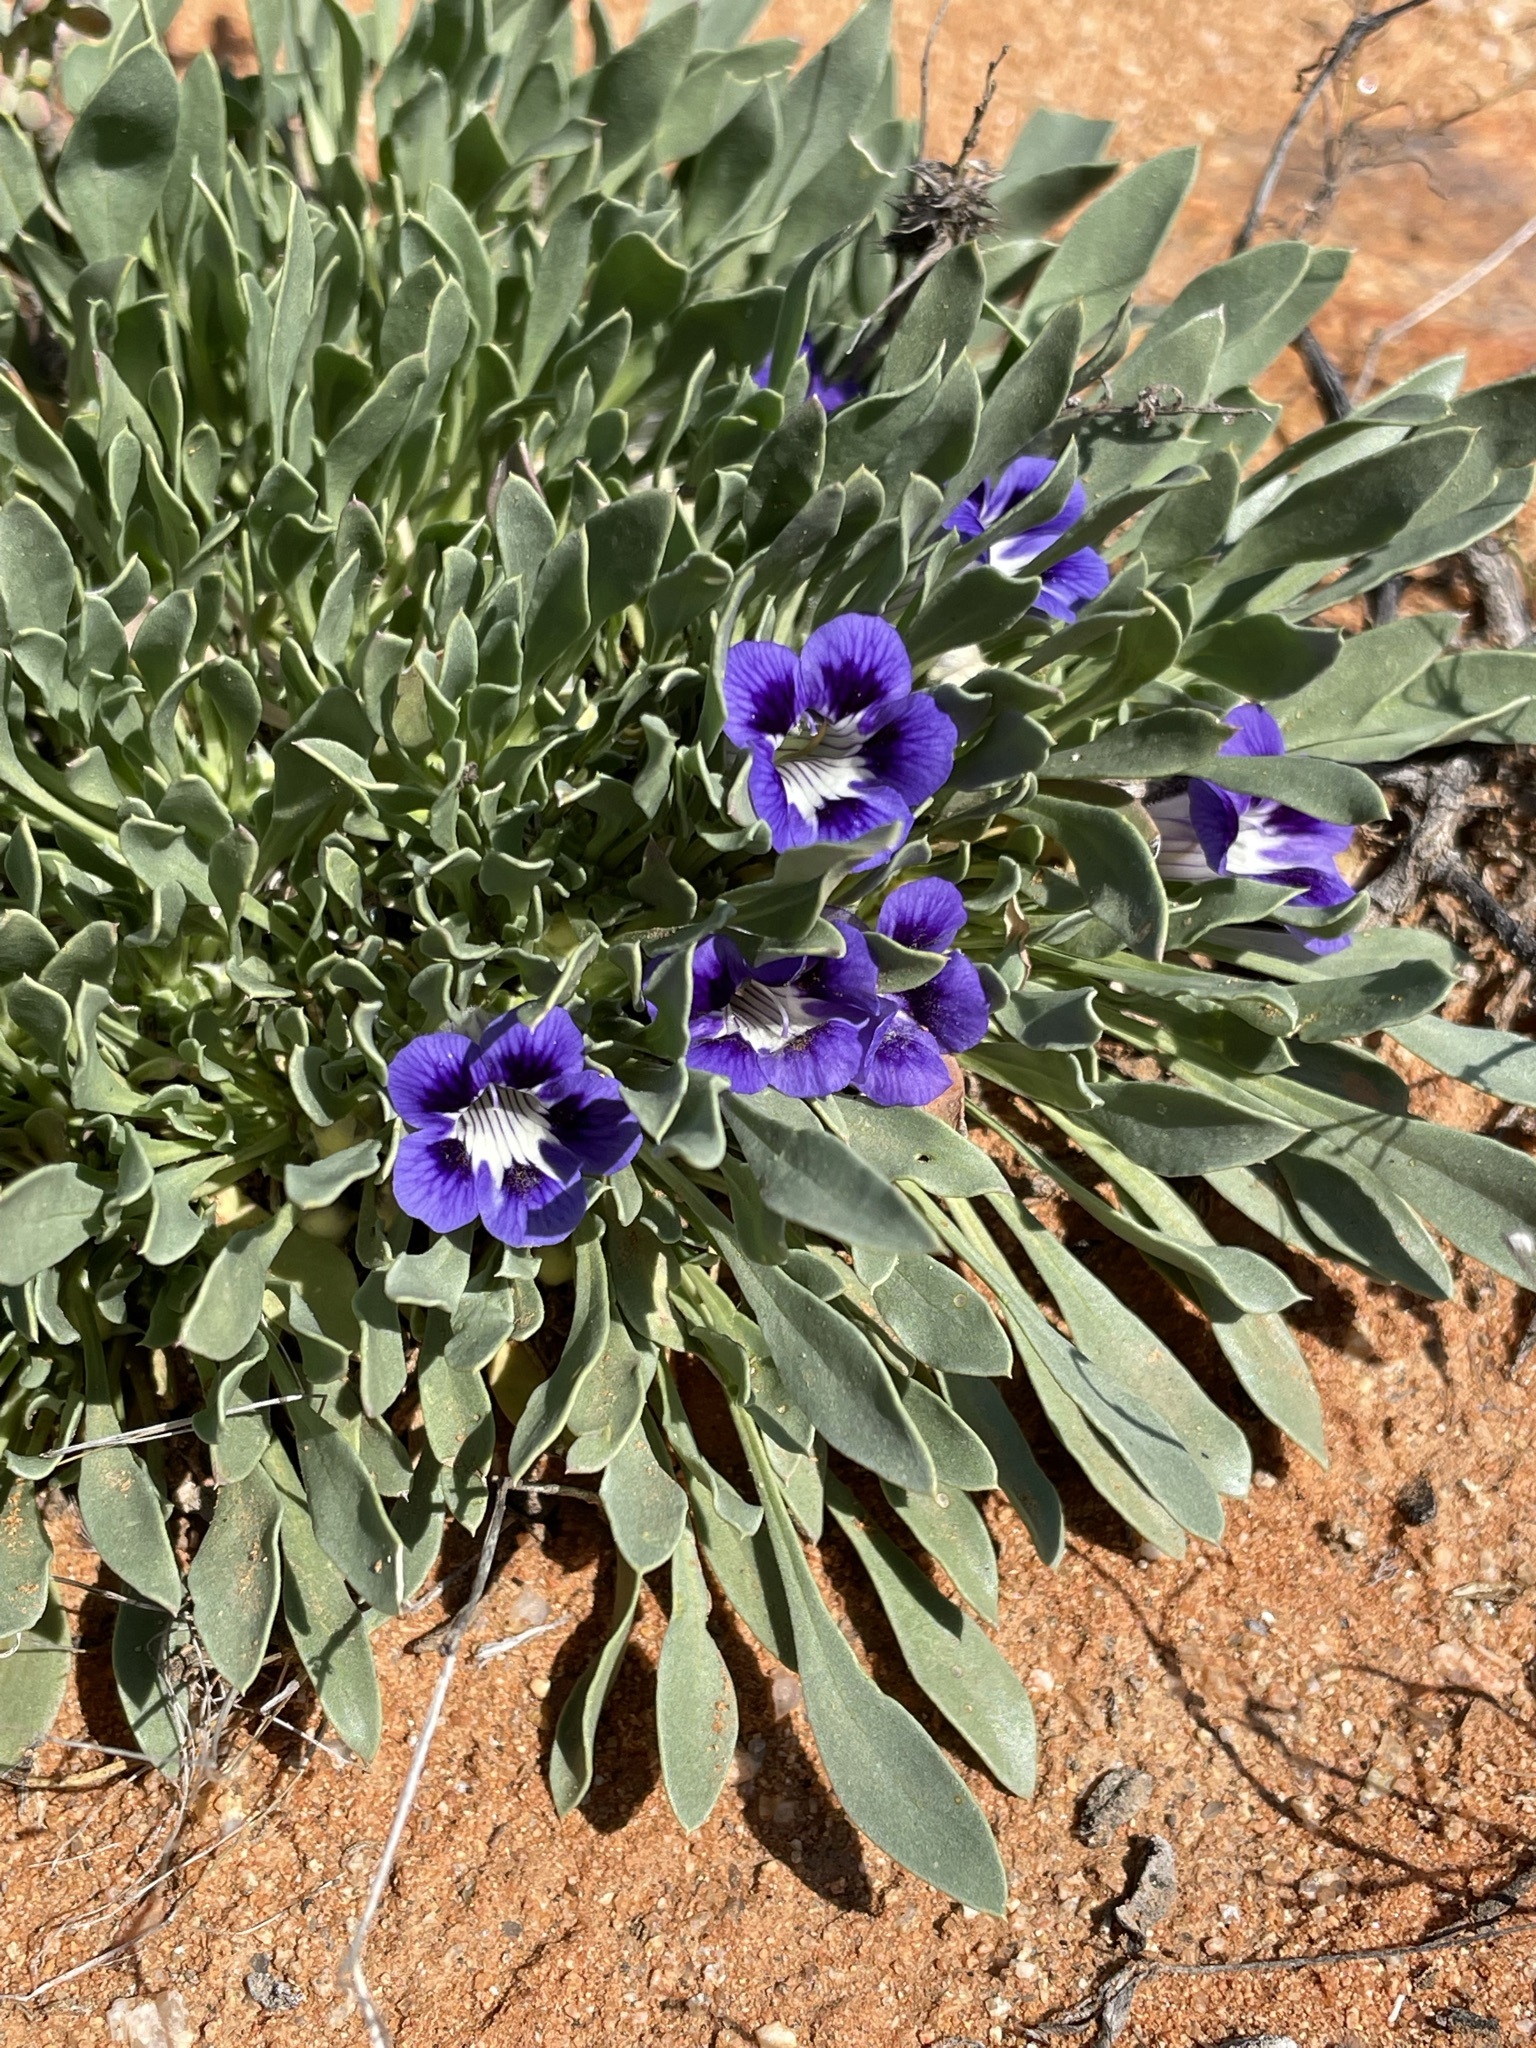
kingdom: Plantae
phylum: Tracheophyta
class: Magnoliopsida
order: Lamiales
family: Scrophulariaceae
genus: Aptosimum
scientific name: Aptosimum indivisum
